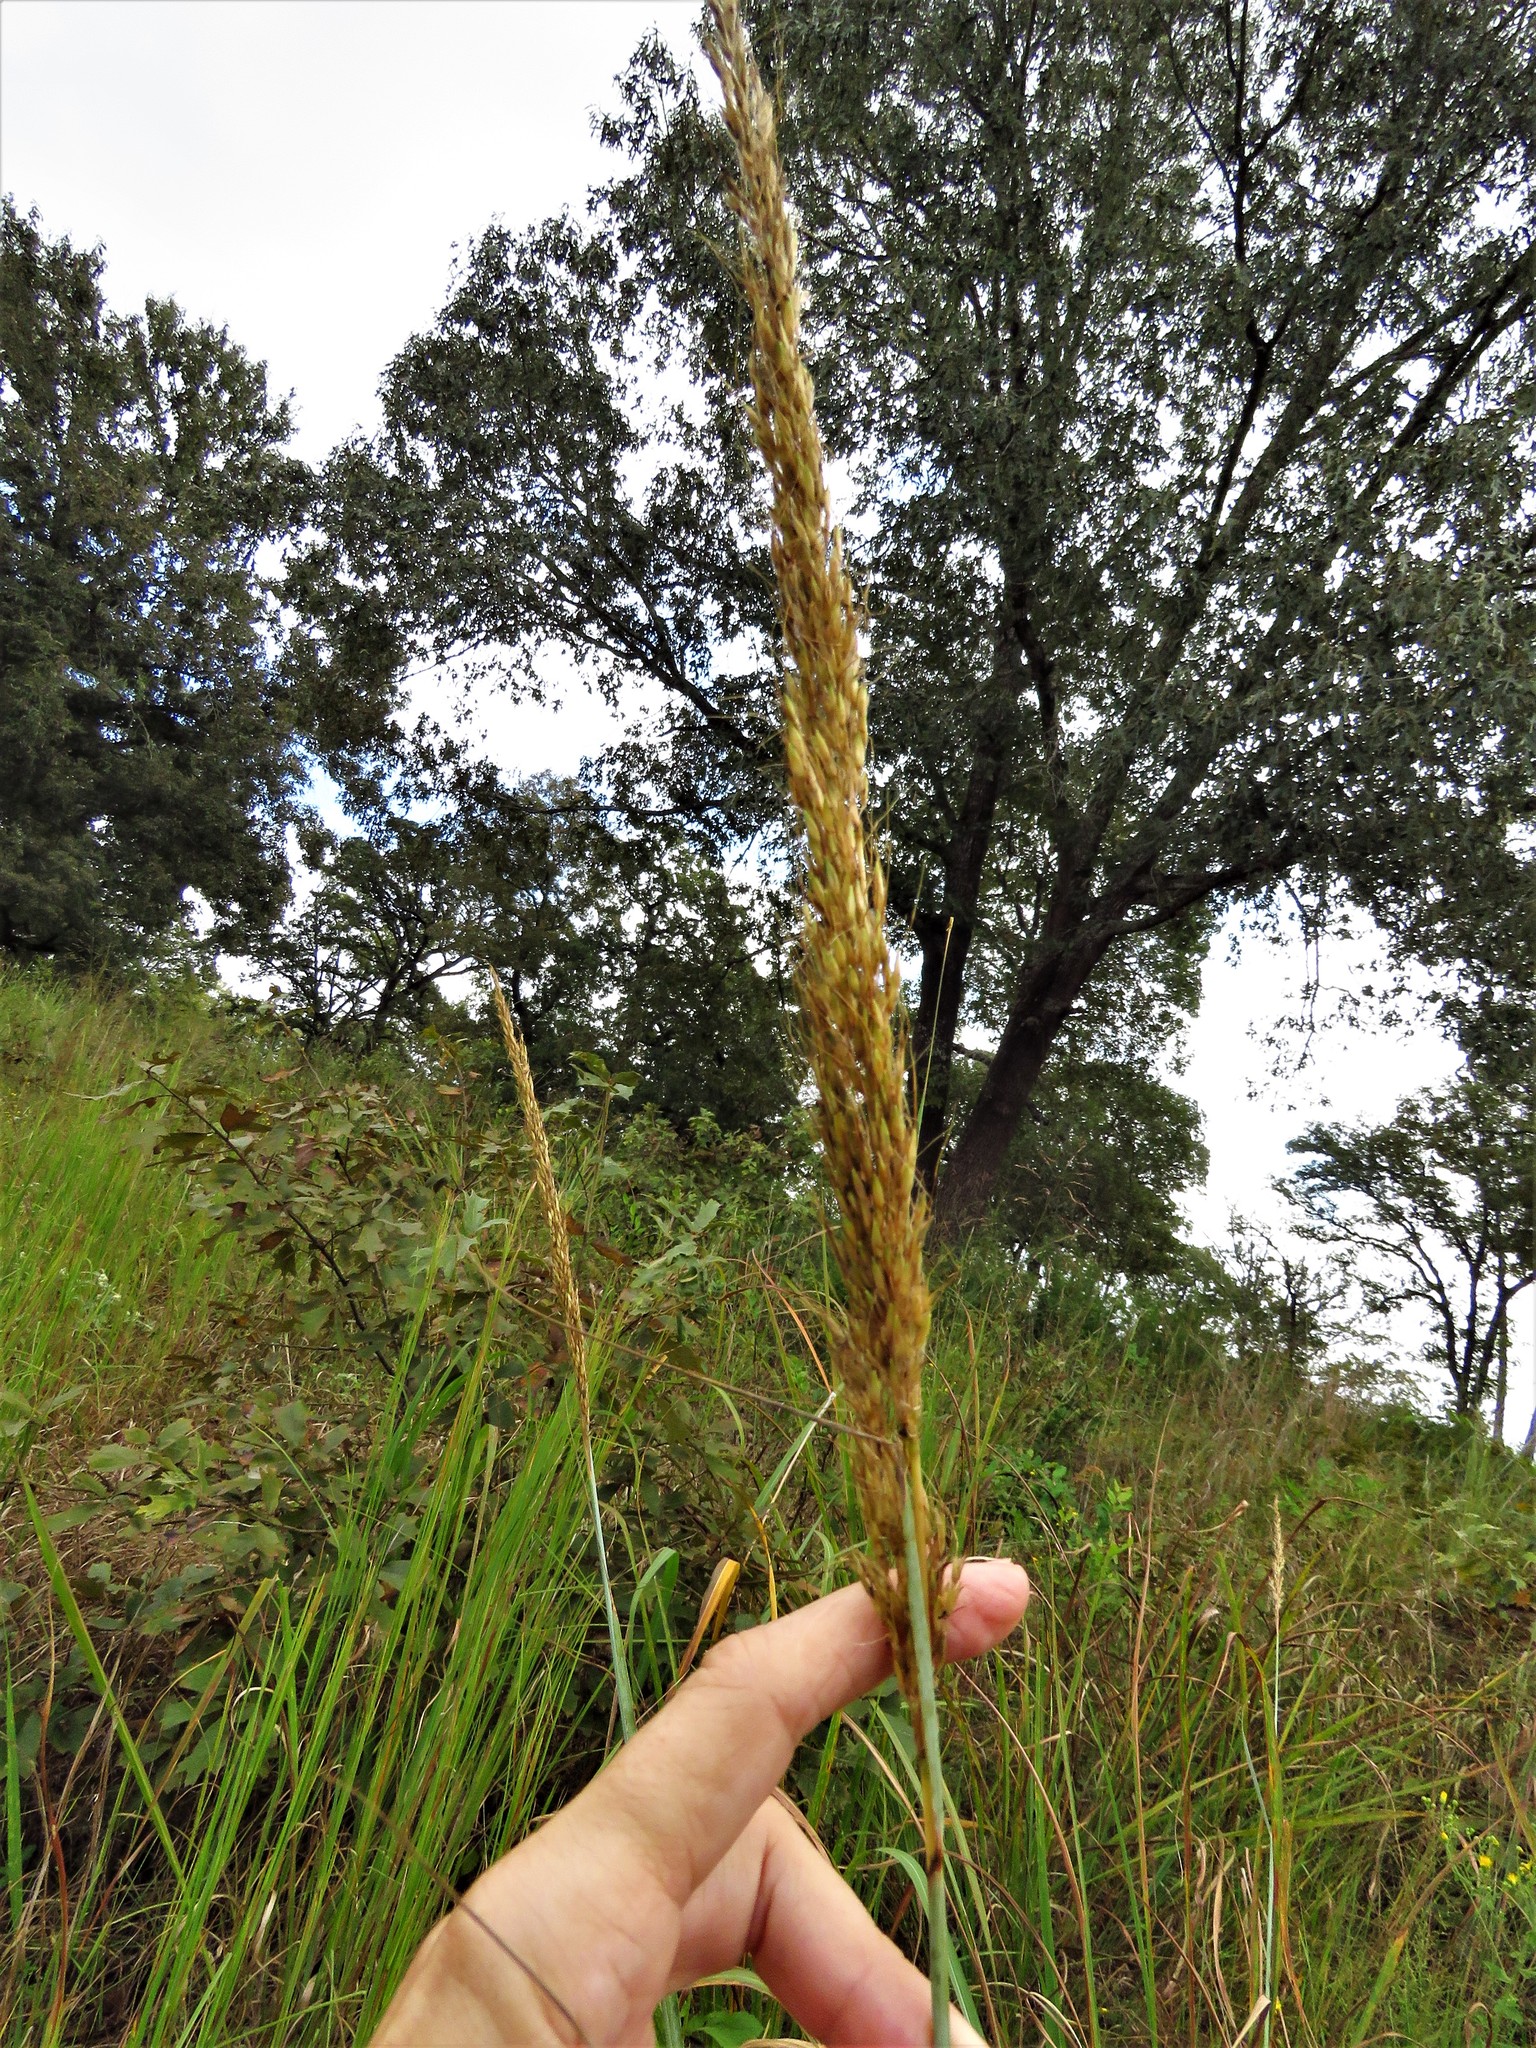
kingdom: Plantae
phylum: Tracheophyta
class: Liliopsida
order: Poales
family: Poaceae
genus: Sorghastrum
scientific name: Sorghastrum nutans
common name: Indian grass
